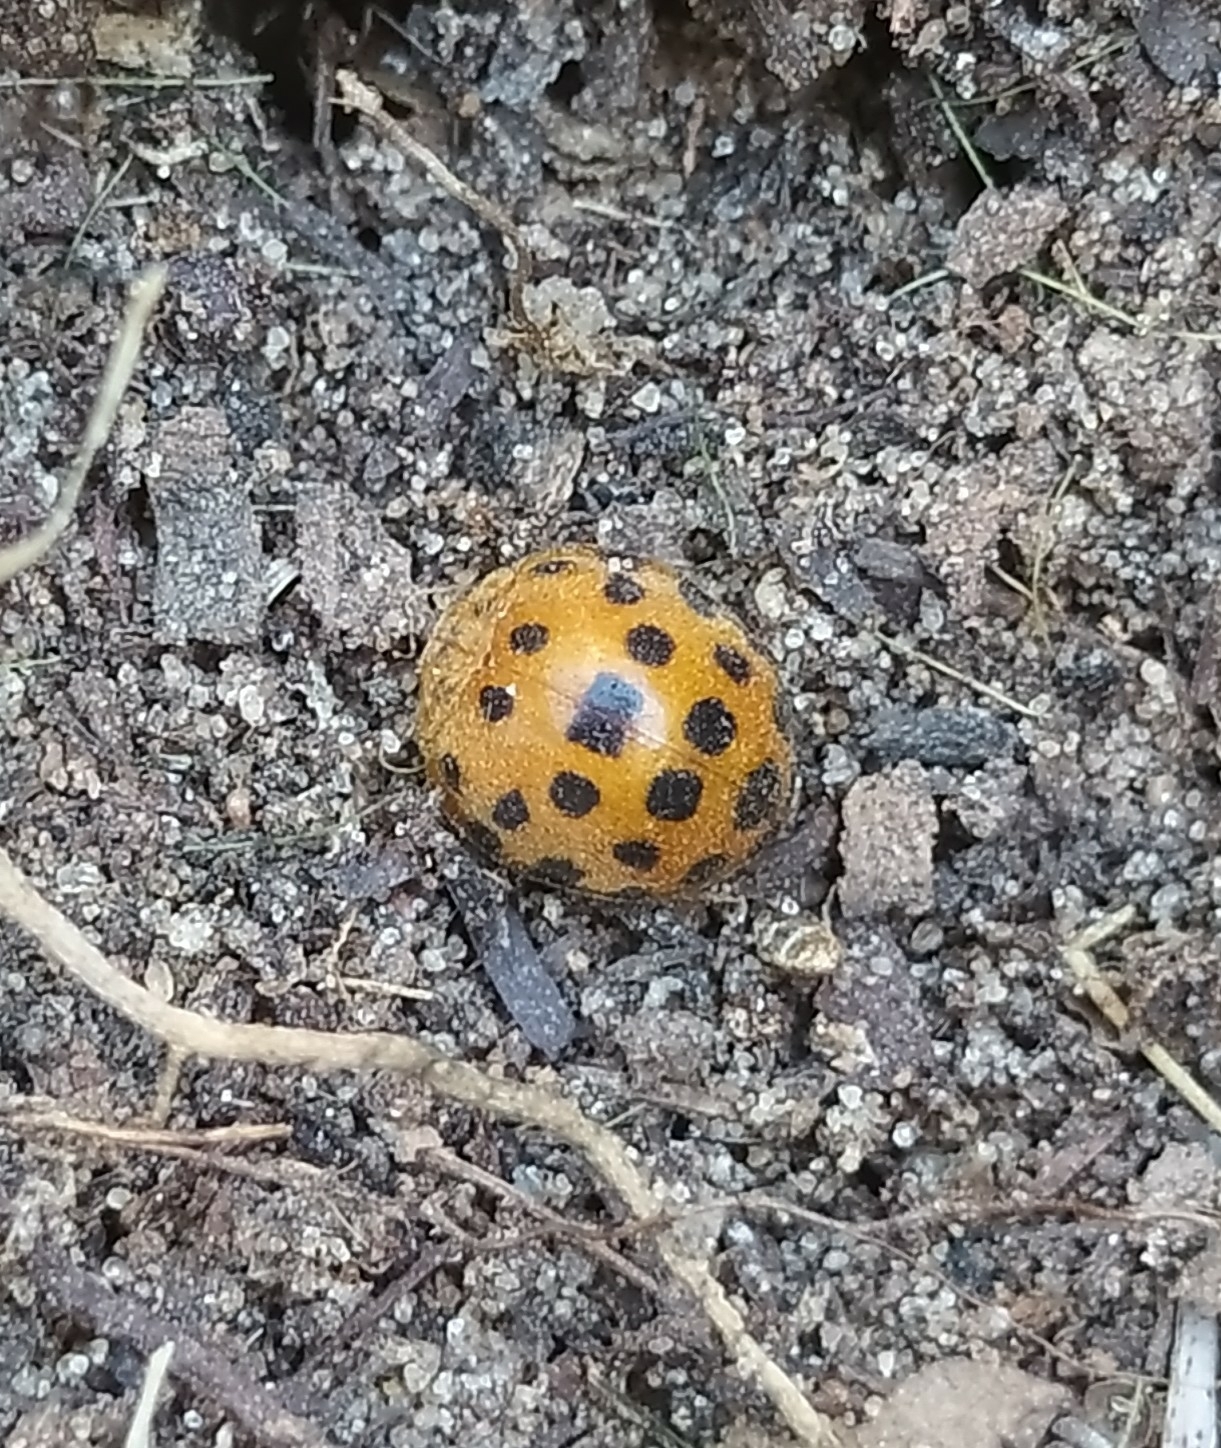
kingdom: Animalia
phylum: Arthropoda
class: Insecta
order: Coleoptera
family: Coccinellidae
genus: Henosepilachna
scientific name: Henosepilachna vigintioctopunctata
